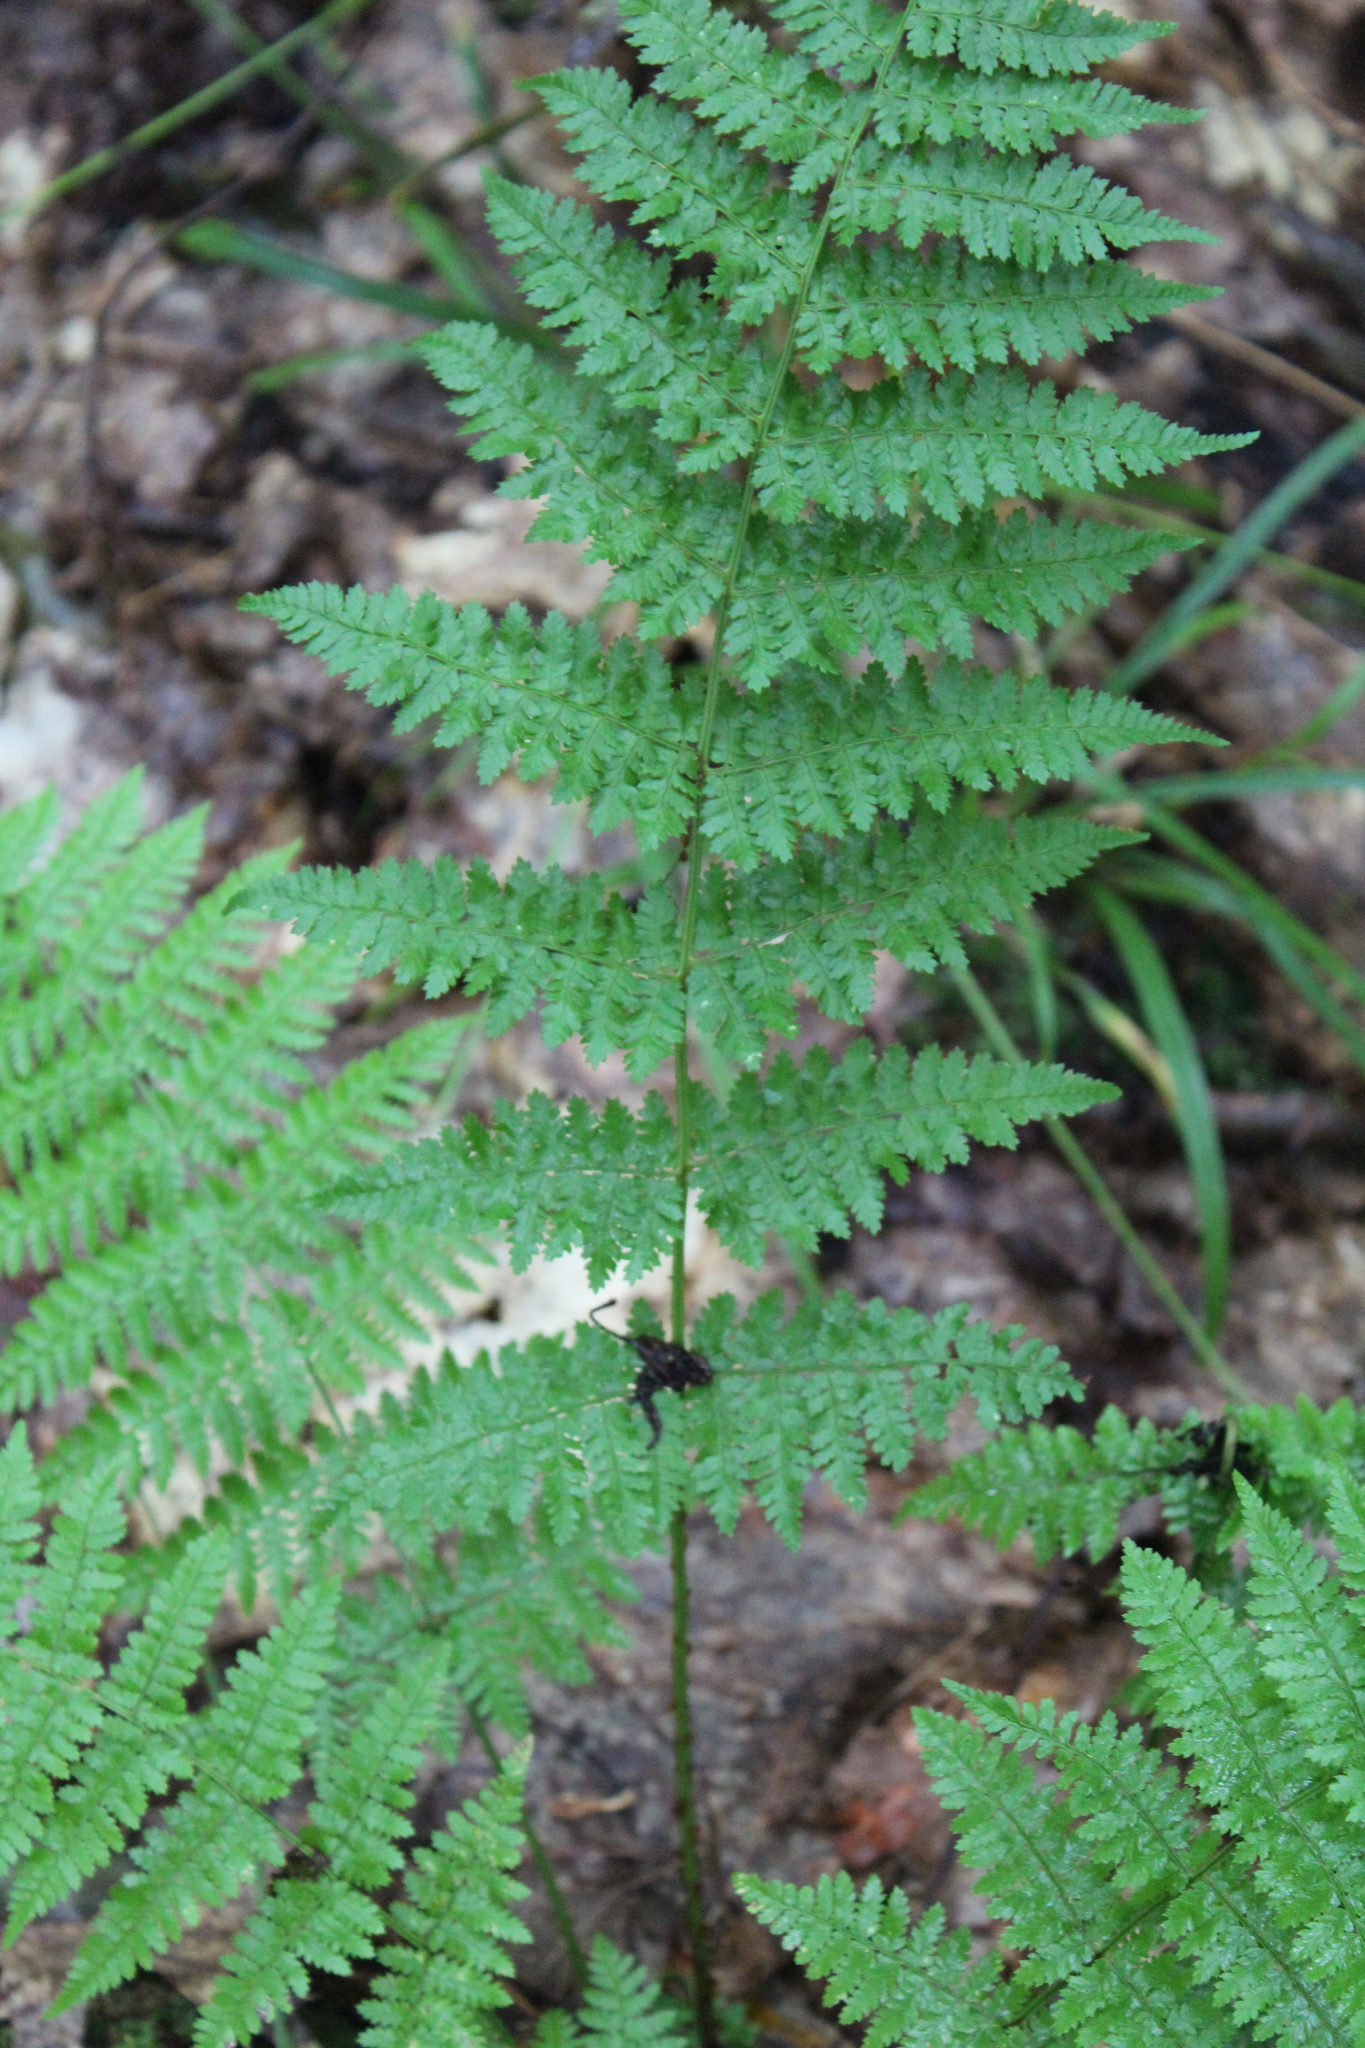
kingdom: Plantae
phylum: Tracheophyta
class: Polypodiopsida
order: Polypodiales
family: Dryopteridaceae
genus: Dryopteris
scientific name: Dryopteris intermedia
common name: Evergreen wood fern
